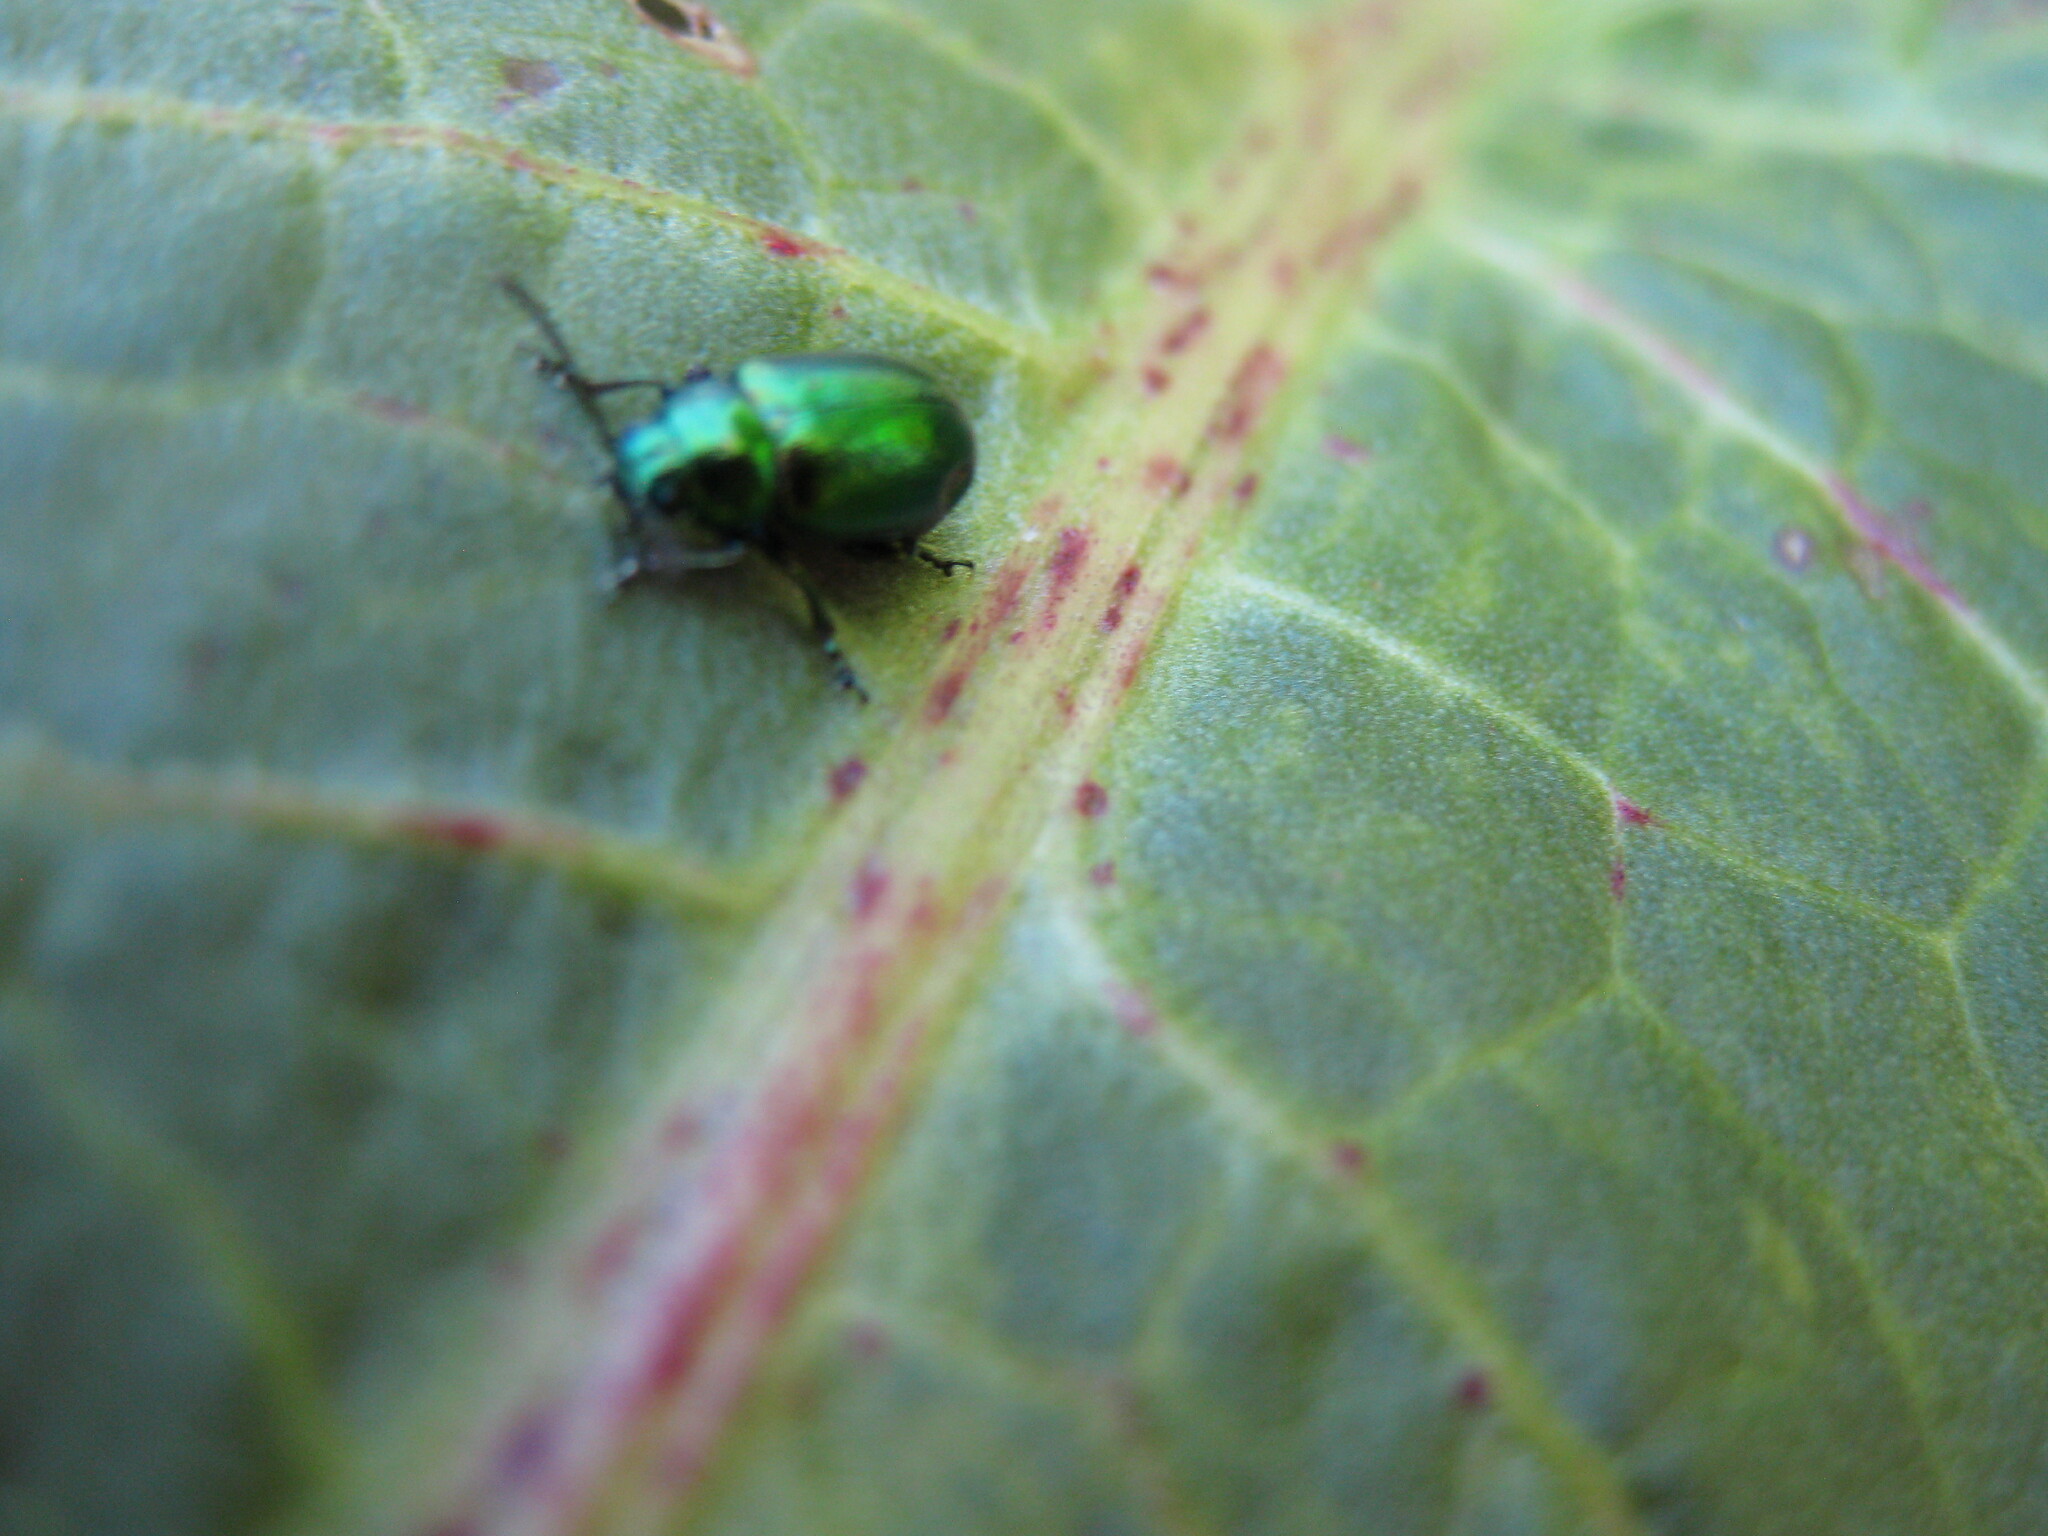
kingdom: Animalia
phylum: Arthropoda
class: Insecta
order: Coleoptera
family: Chrysomelidae
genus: Gastrophysa
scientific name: Gastrophysa viridula
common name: Green dock beetle
